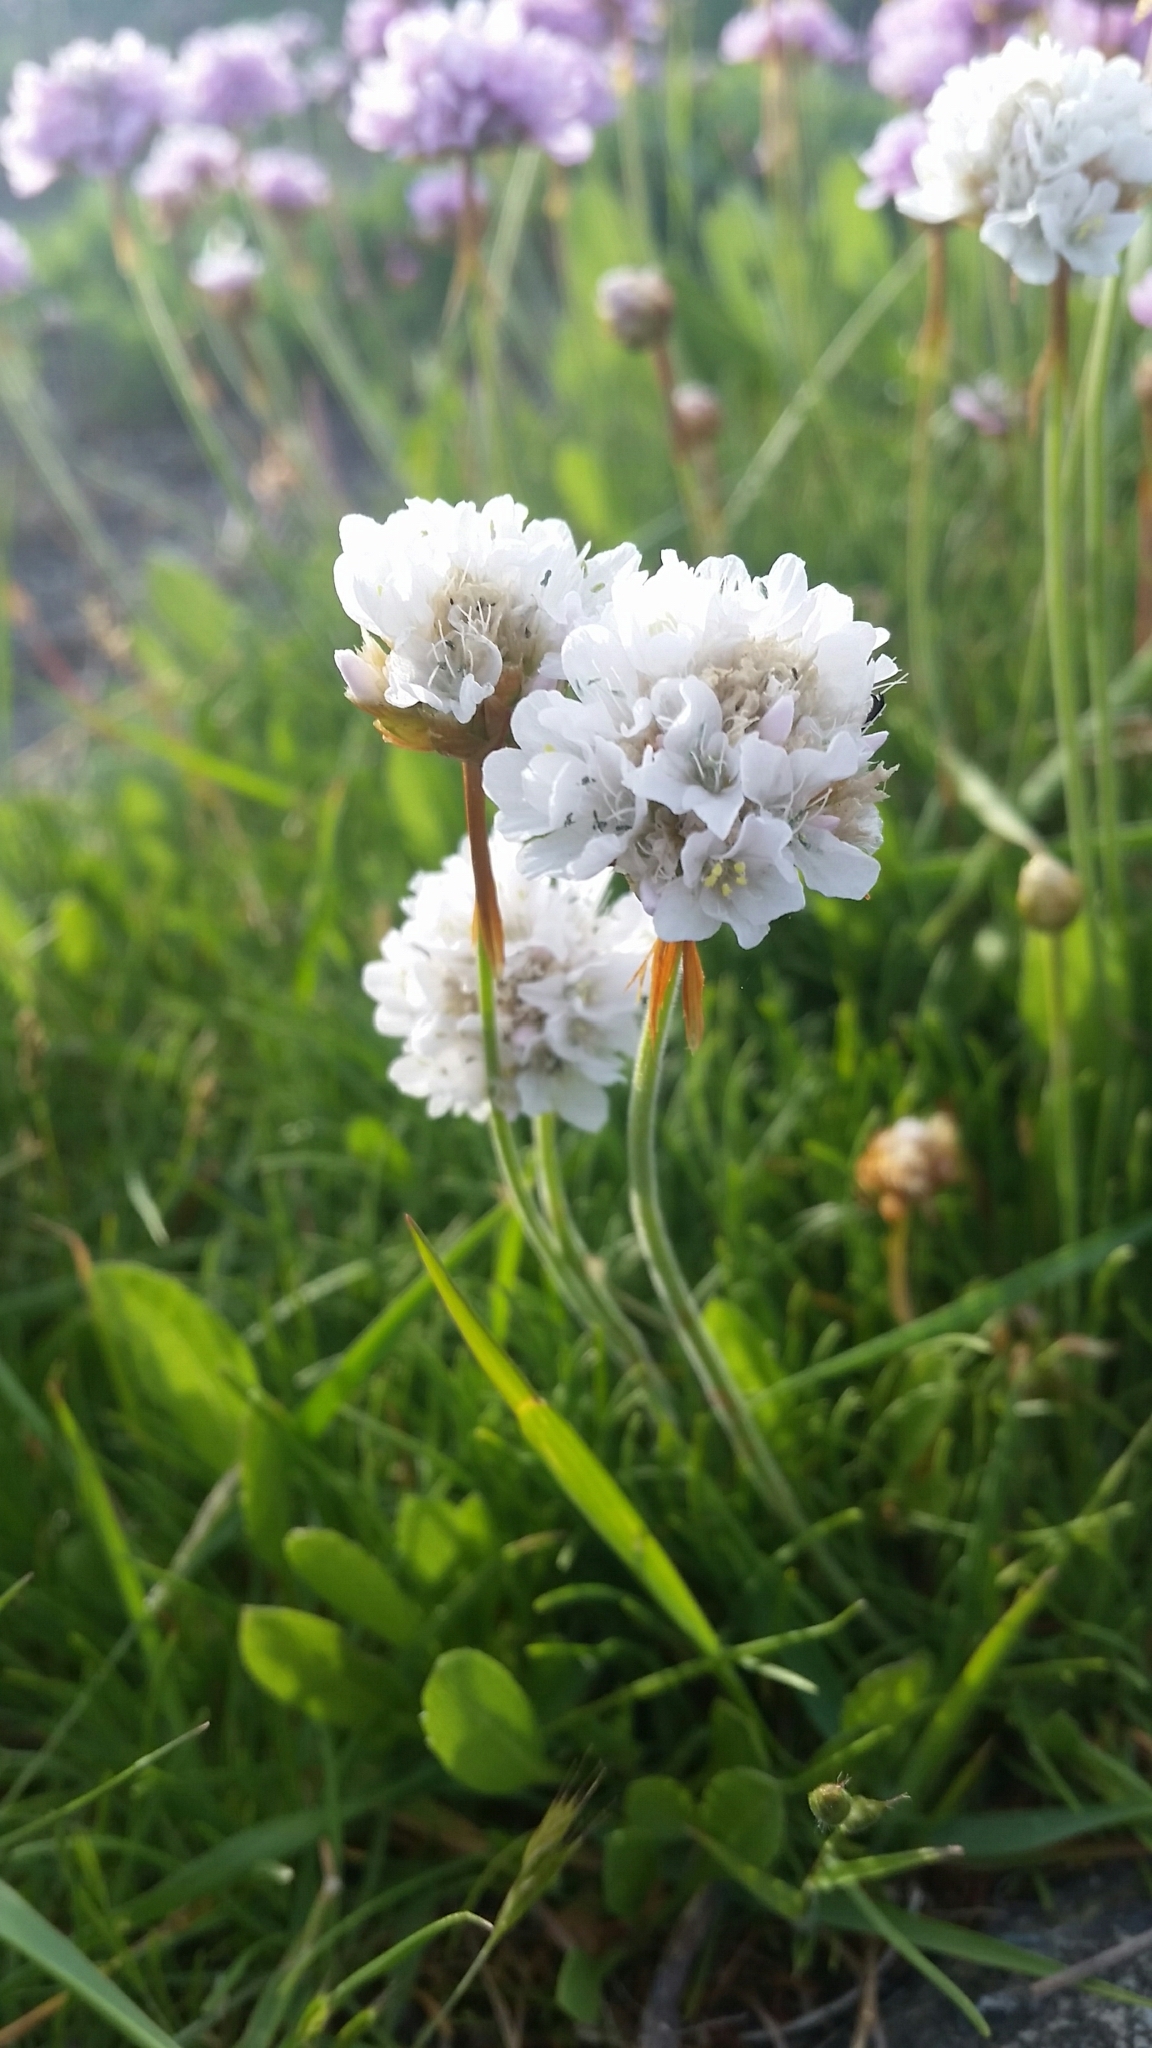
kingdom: Plantae
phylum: Tracheophyta
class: Magnoliopsida
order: Caryophyllales
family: Plumbaginaceae
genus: Armeria
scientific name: Armeria maritima
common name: Thrift
